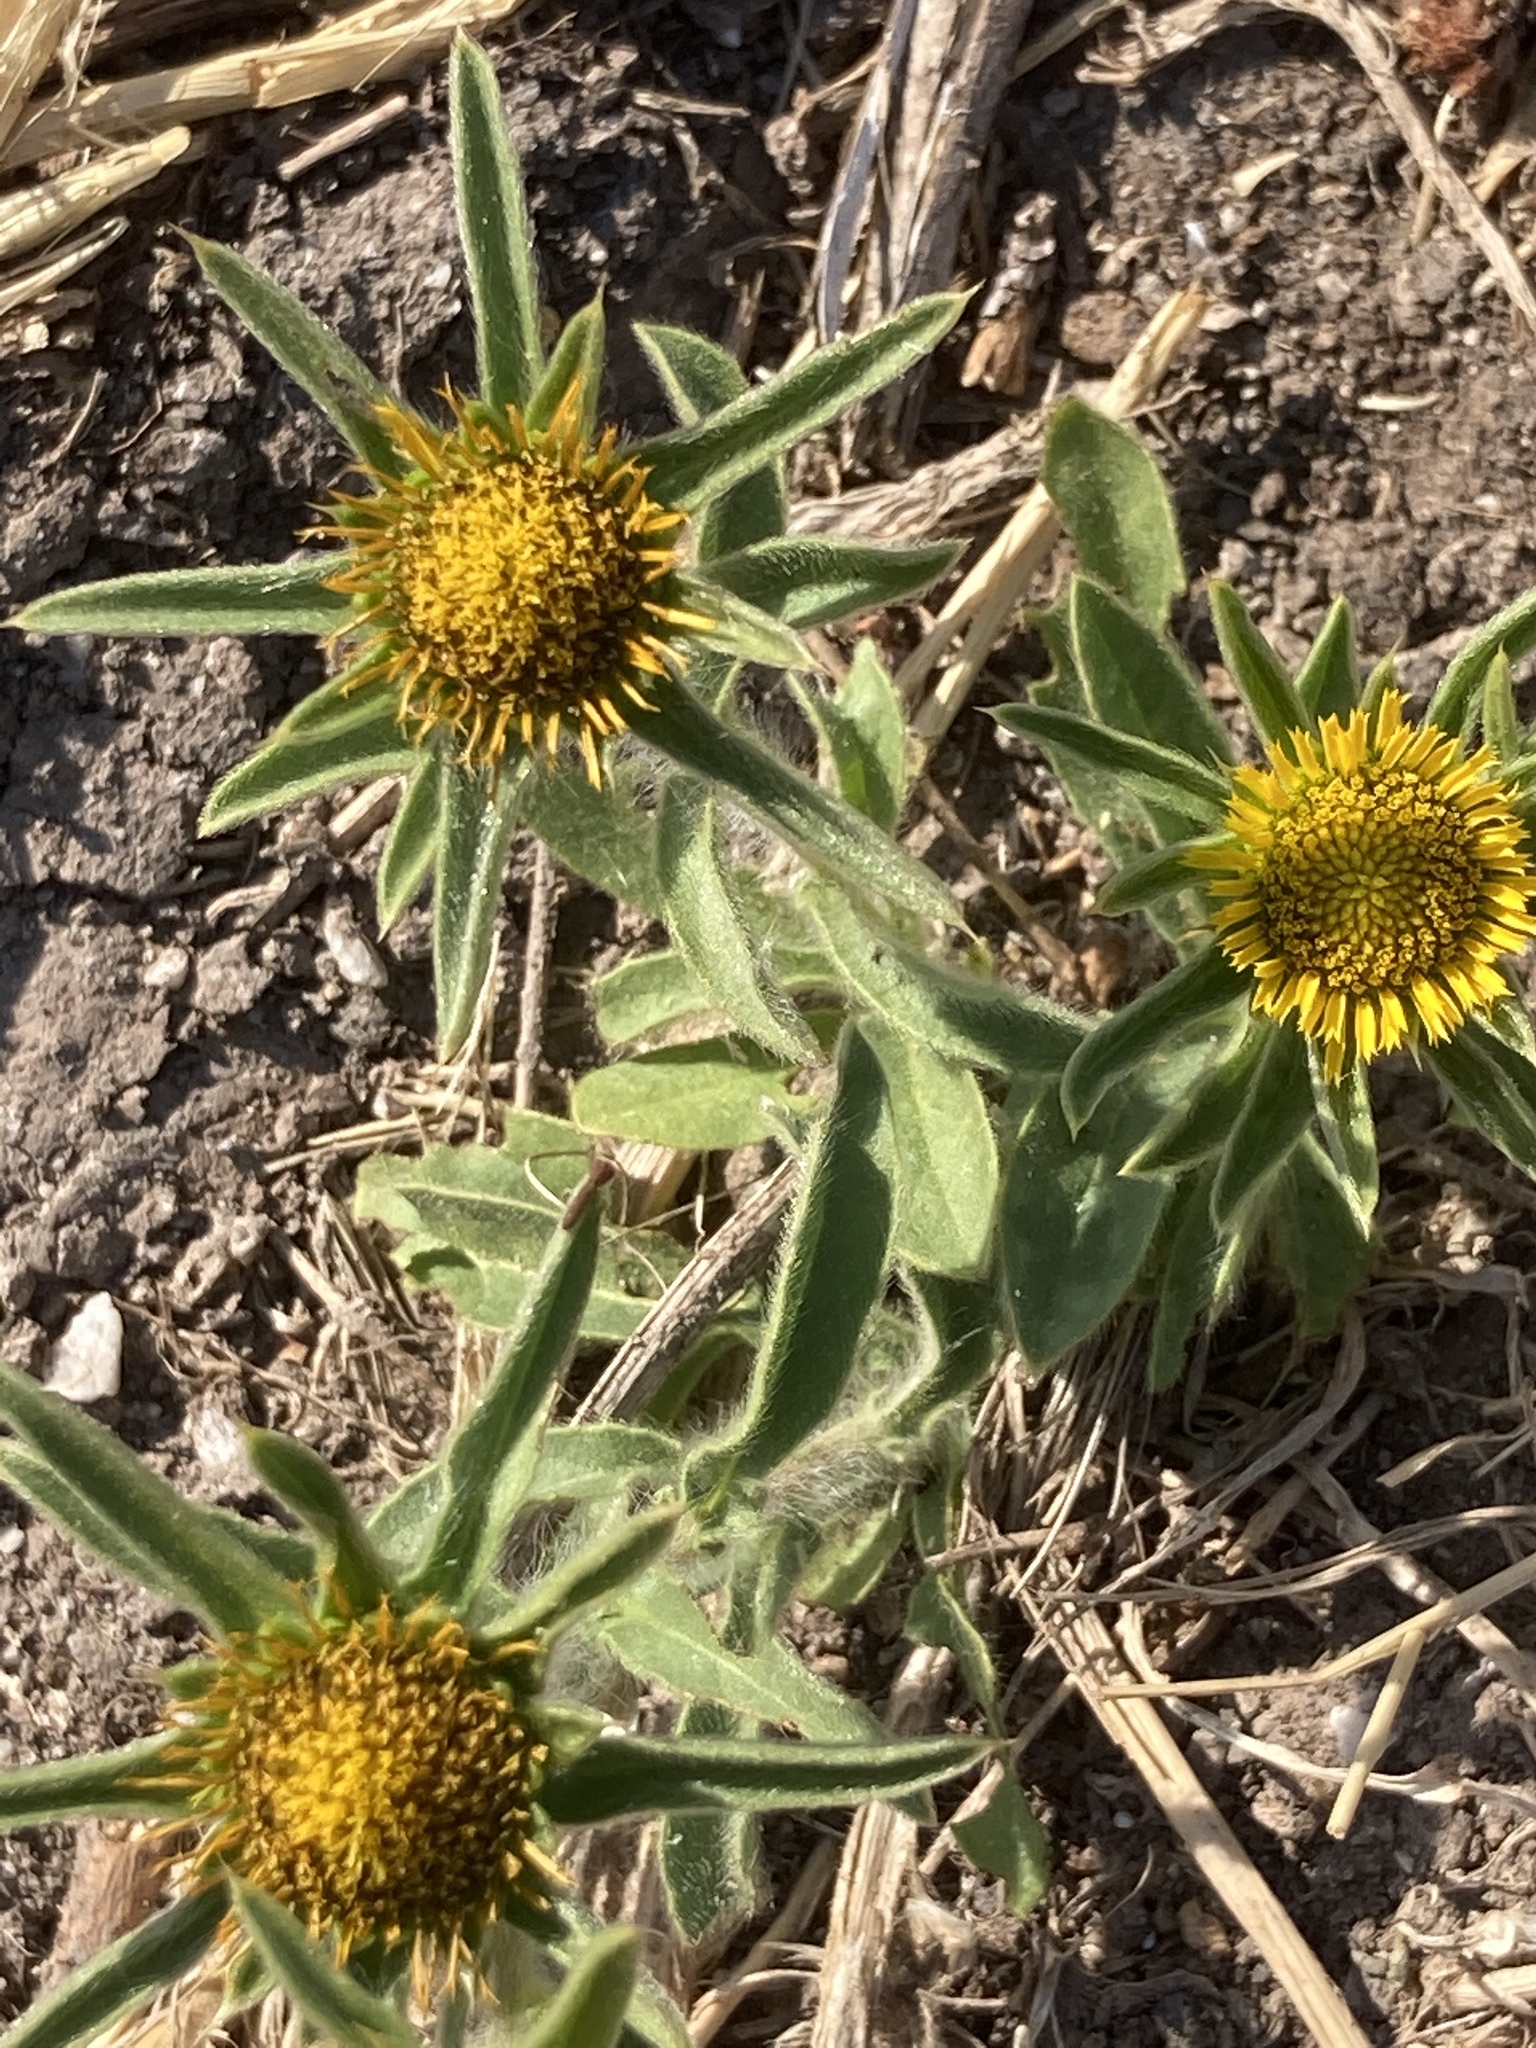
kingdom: Plantae
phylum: Tracheophyta
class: Magnoliopsida
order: Asterales
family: Asteraceae
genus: Pallenis
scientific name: Pallenis spinosa
